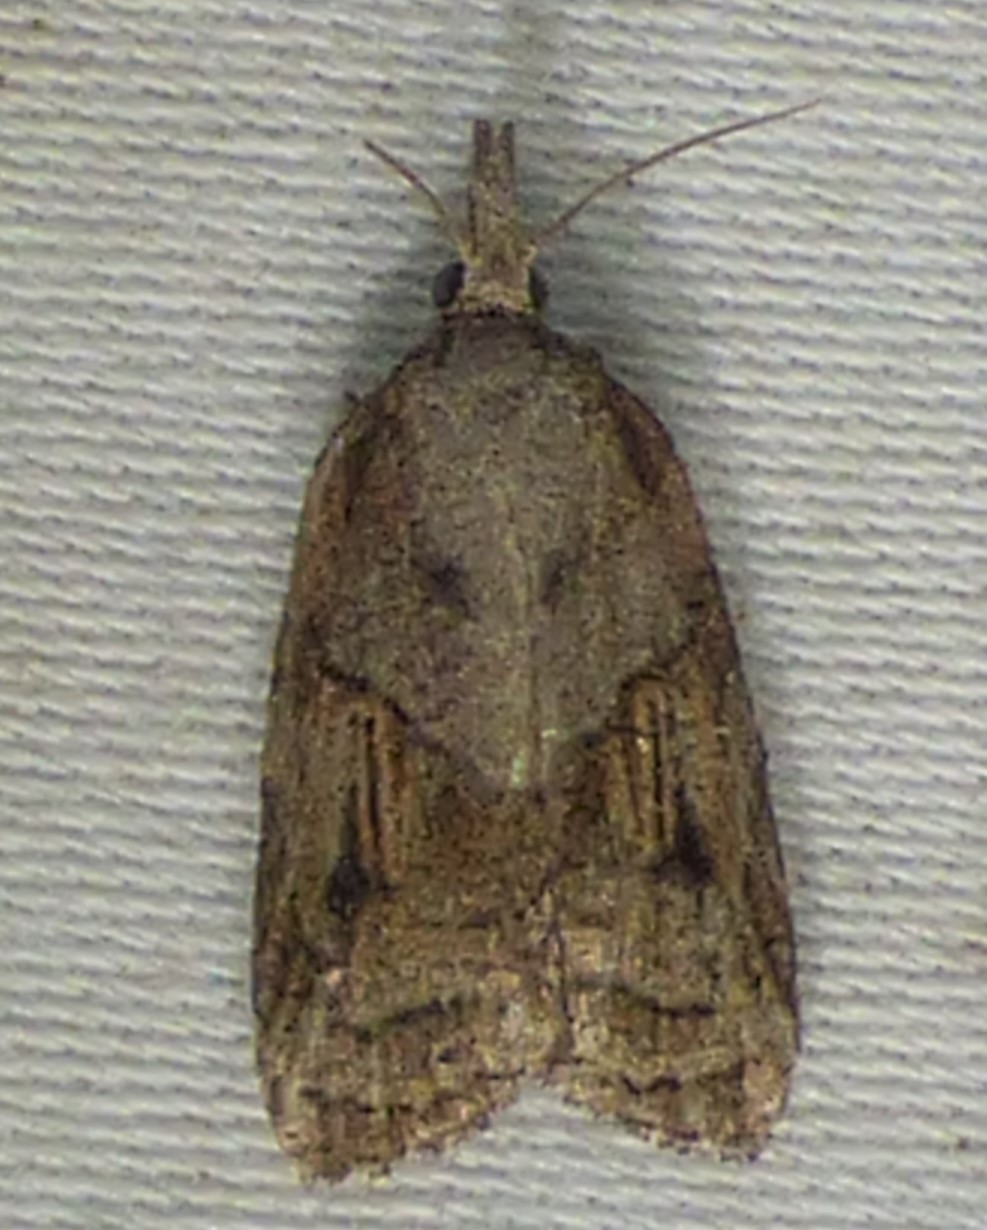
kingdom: Animalia
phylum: Arthropoda
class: Insecta
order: Lepidoptera
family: Tortricidae
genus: Platynota
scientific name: Platynota idaeusalis
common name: Tufted apple bud moth
